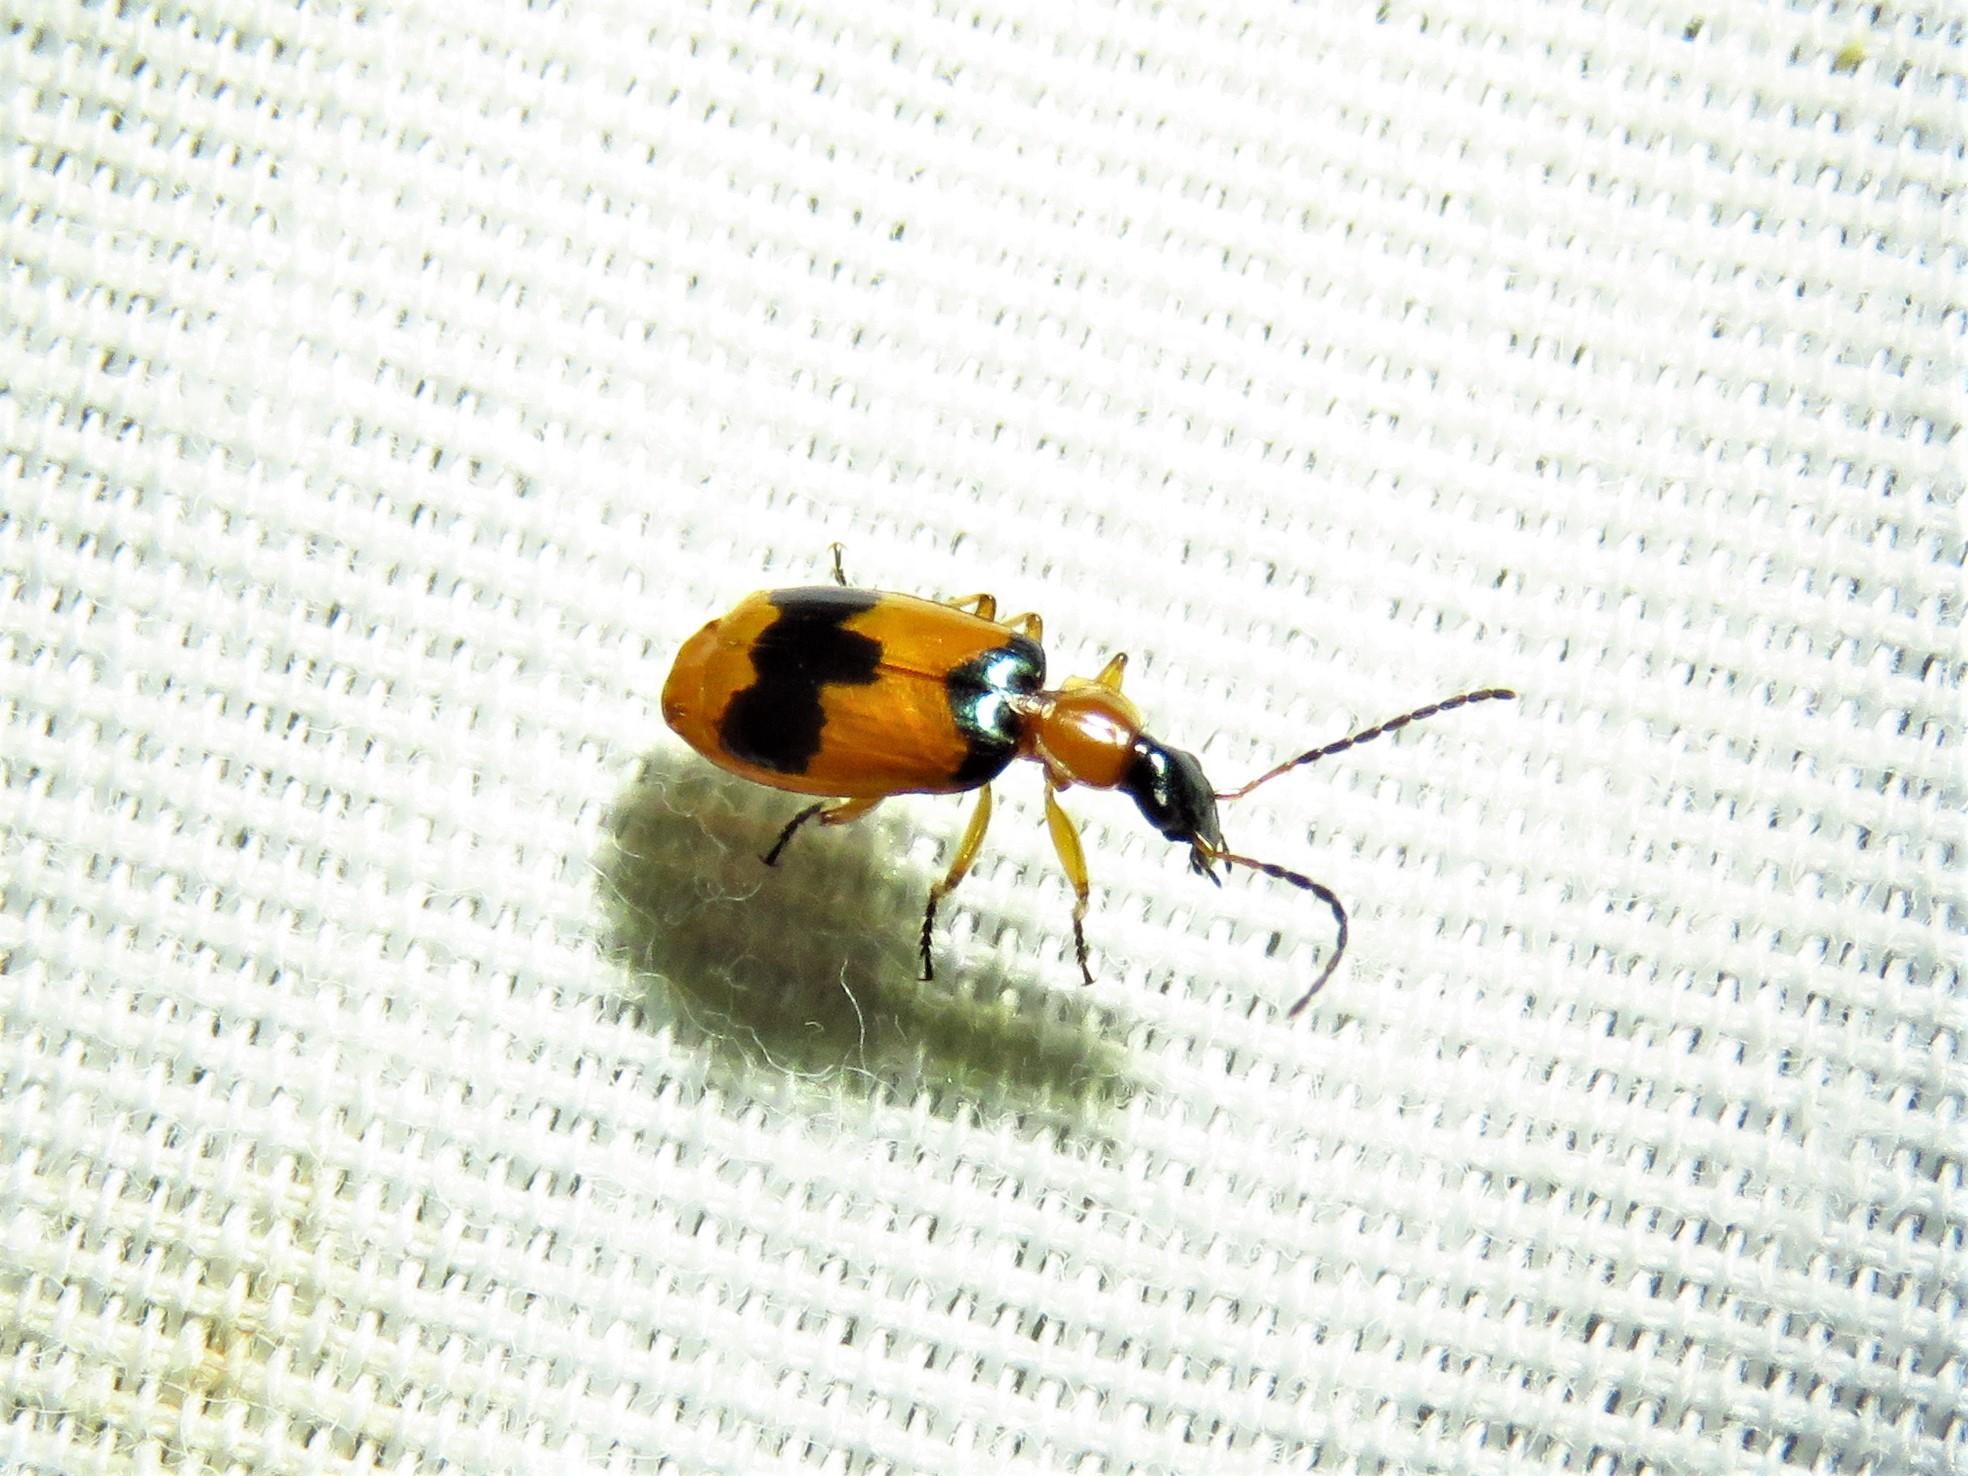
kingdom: Animalia
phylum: Arthropoda
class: Insecta
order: Coleoptera
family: Carabidae
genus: Lebia
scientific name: Lebia pulchella
